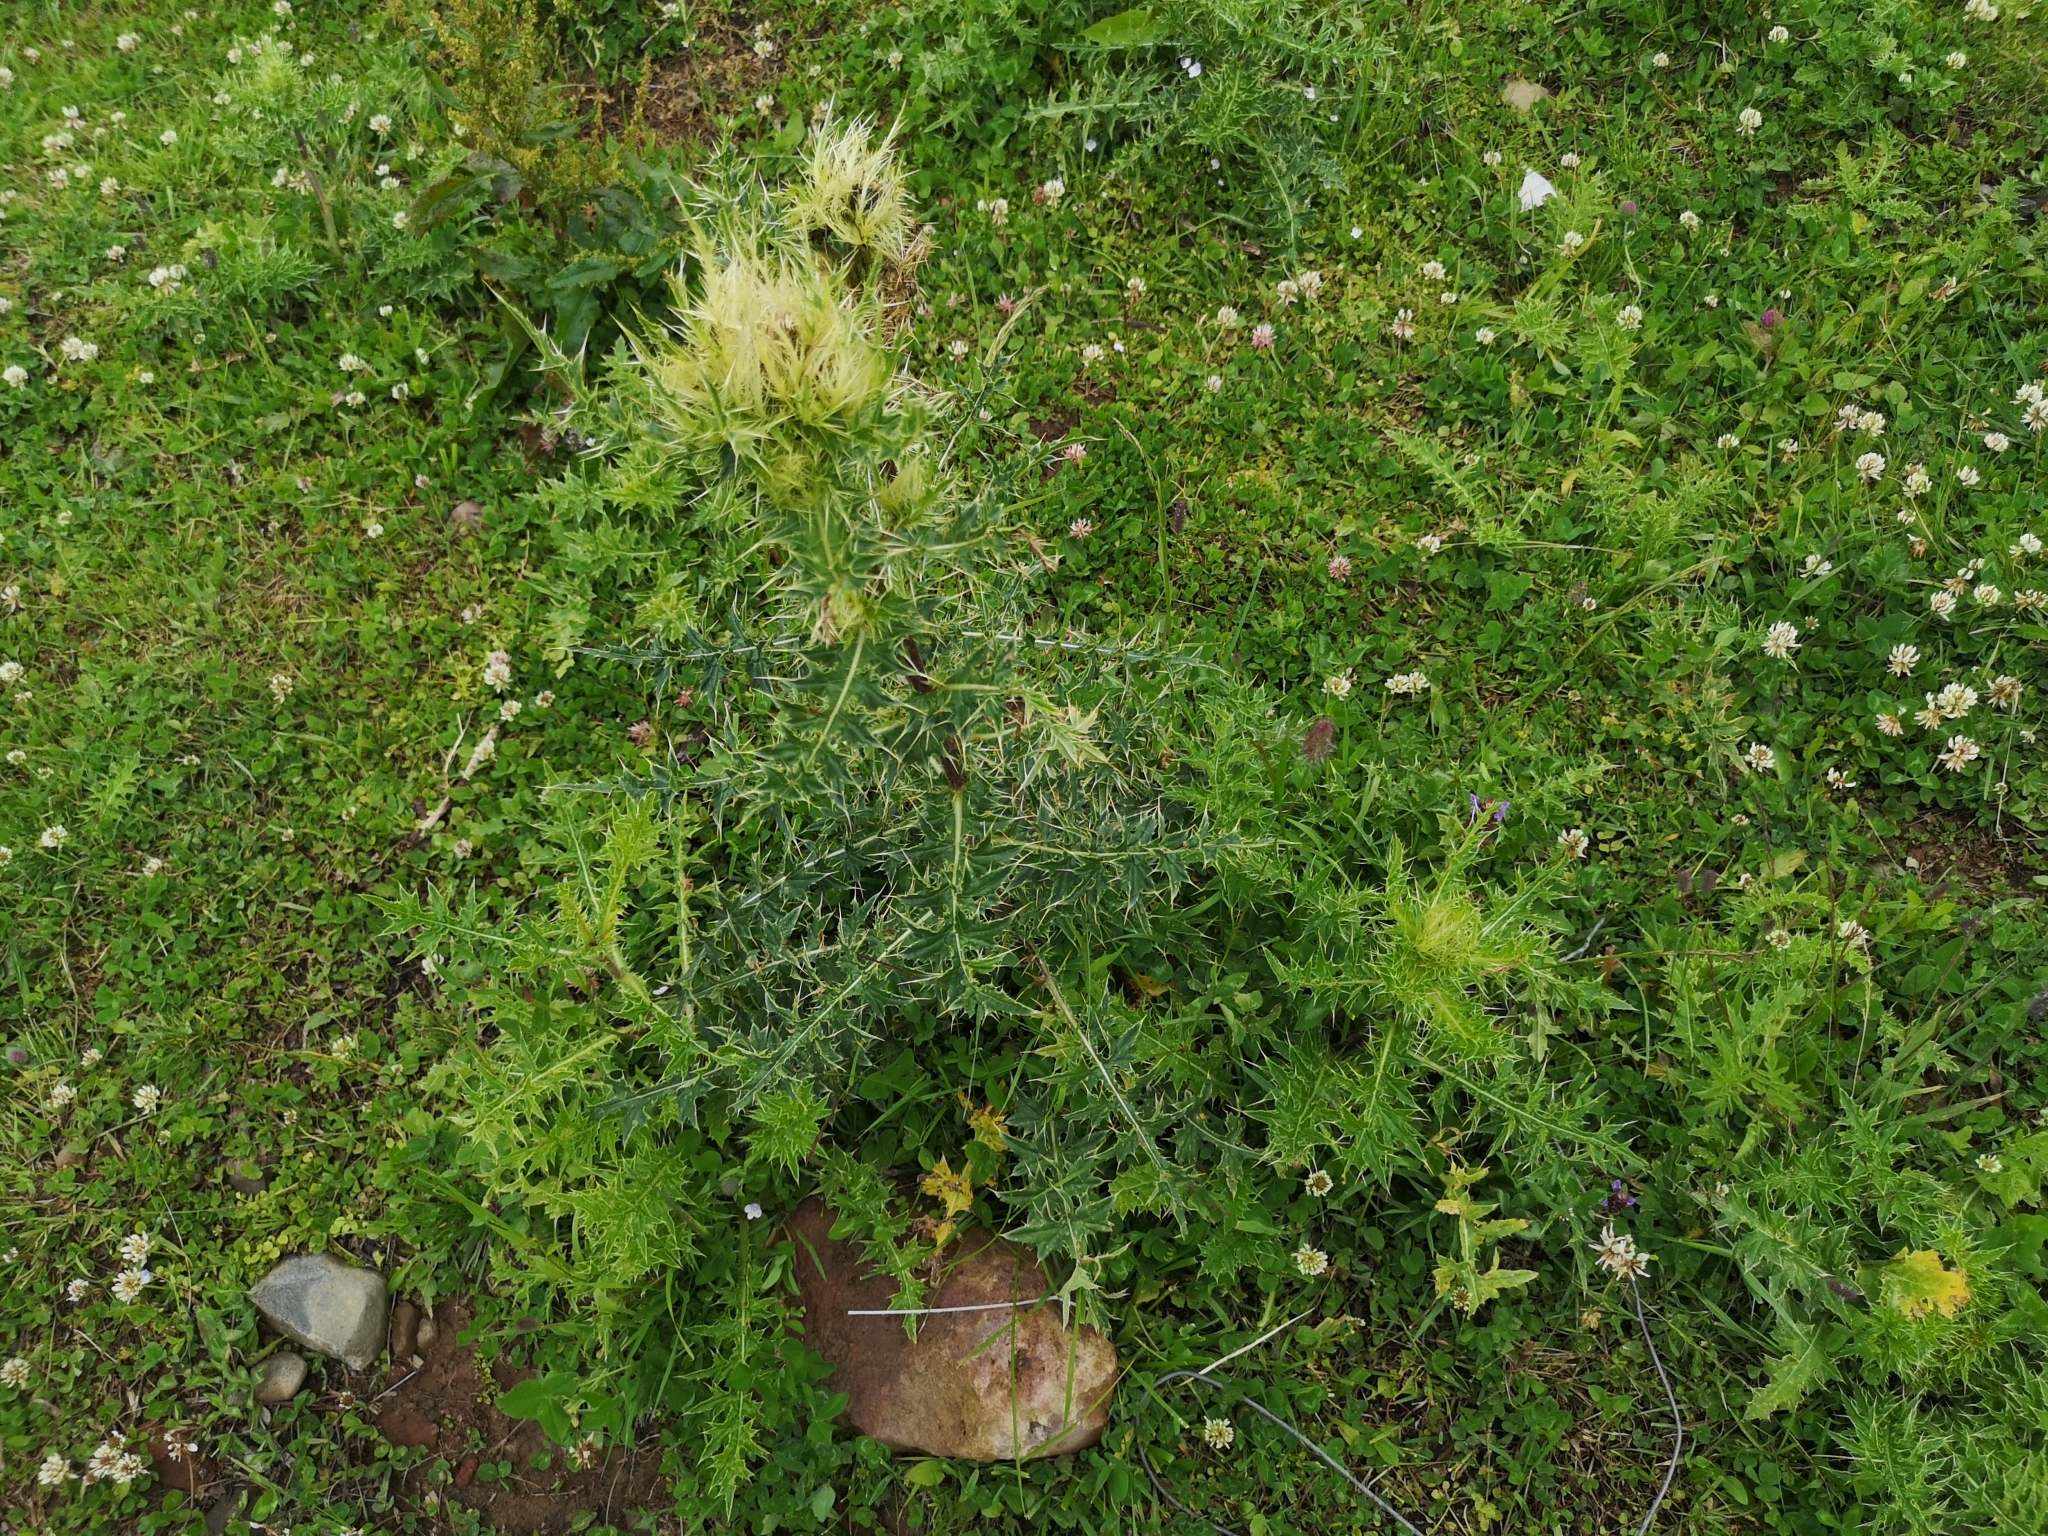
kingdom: Plantae
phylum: Tracheophyta
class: Magnoliopsida
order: Asterales
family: Asteraceae
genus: Cirsium
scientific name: Cirsium obvallatum
